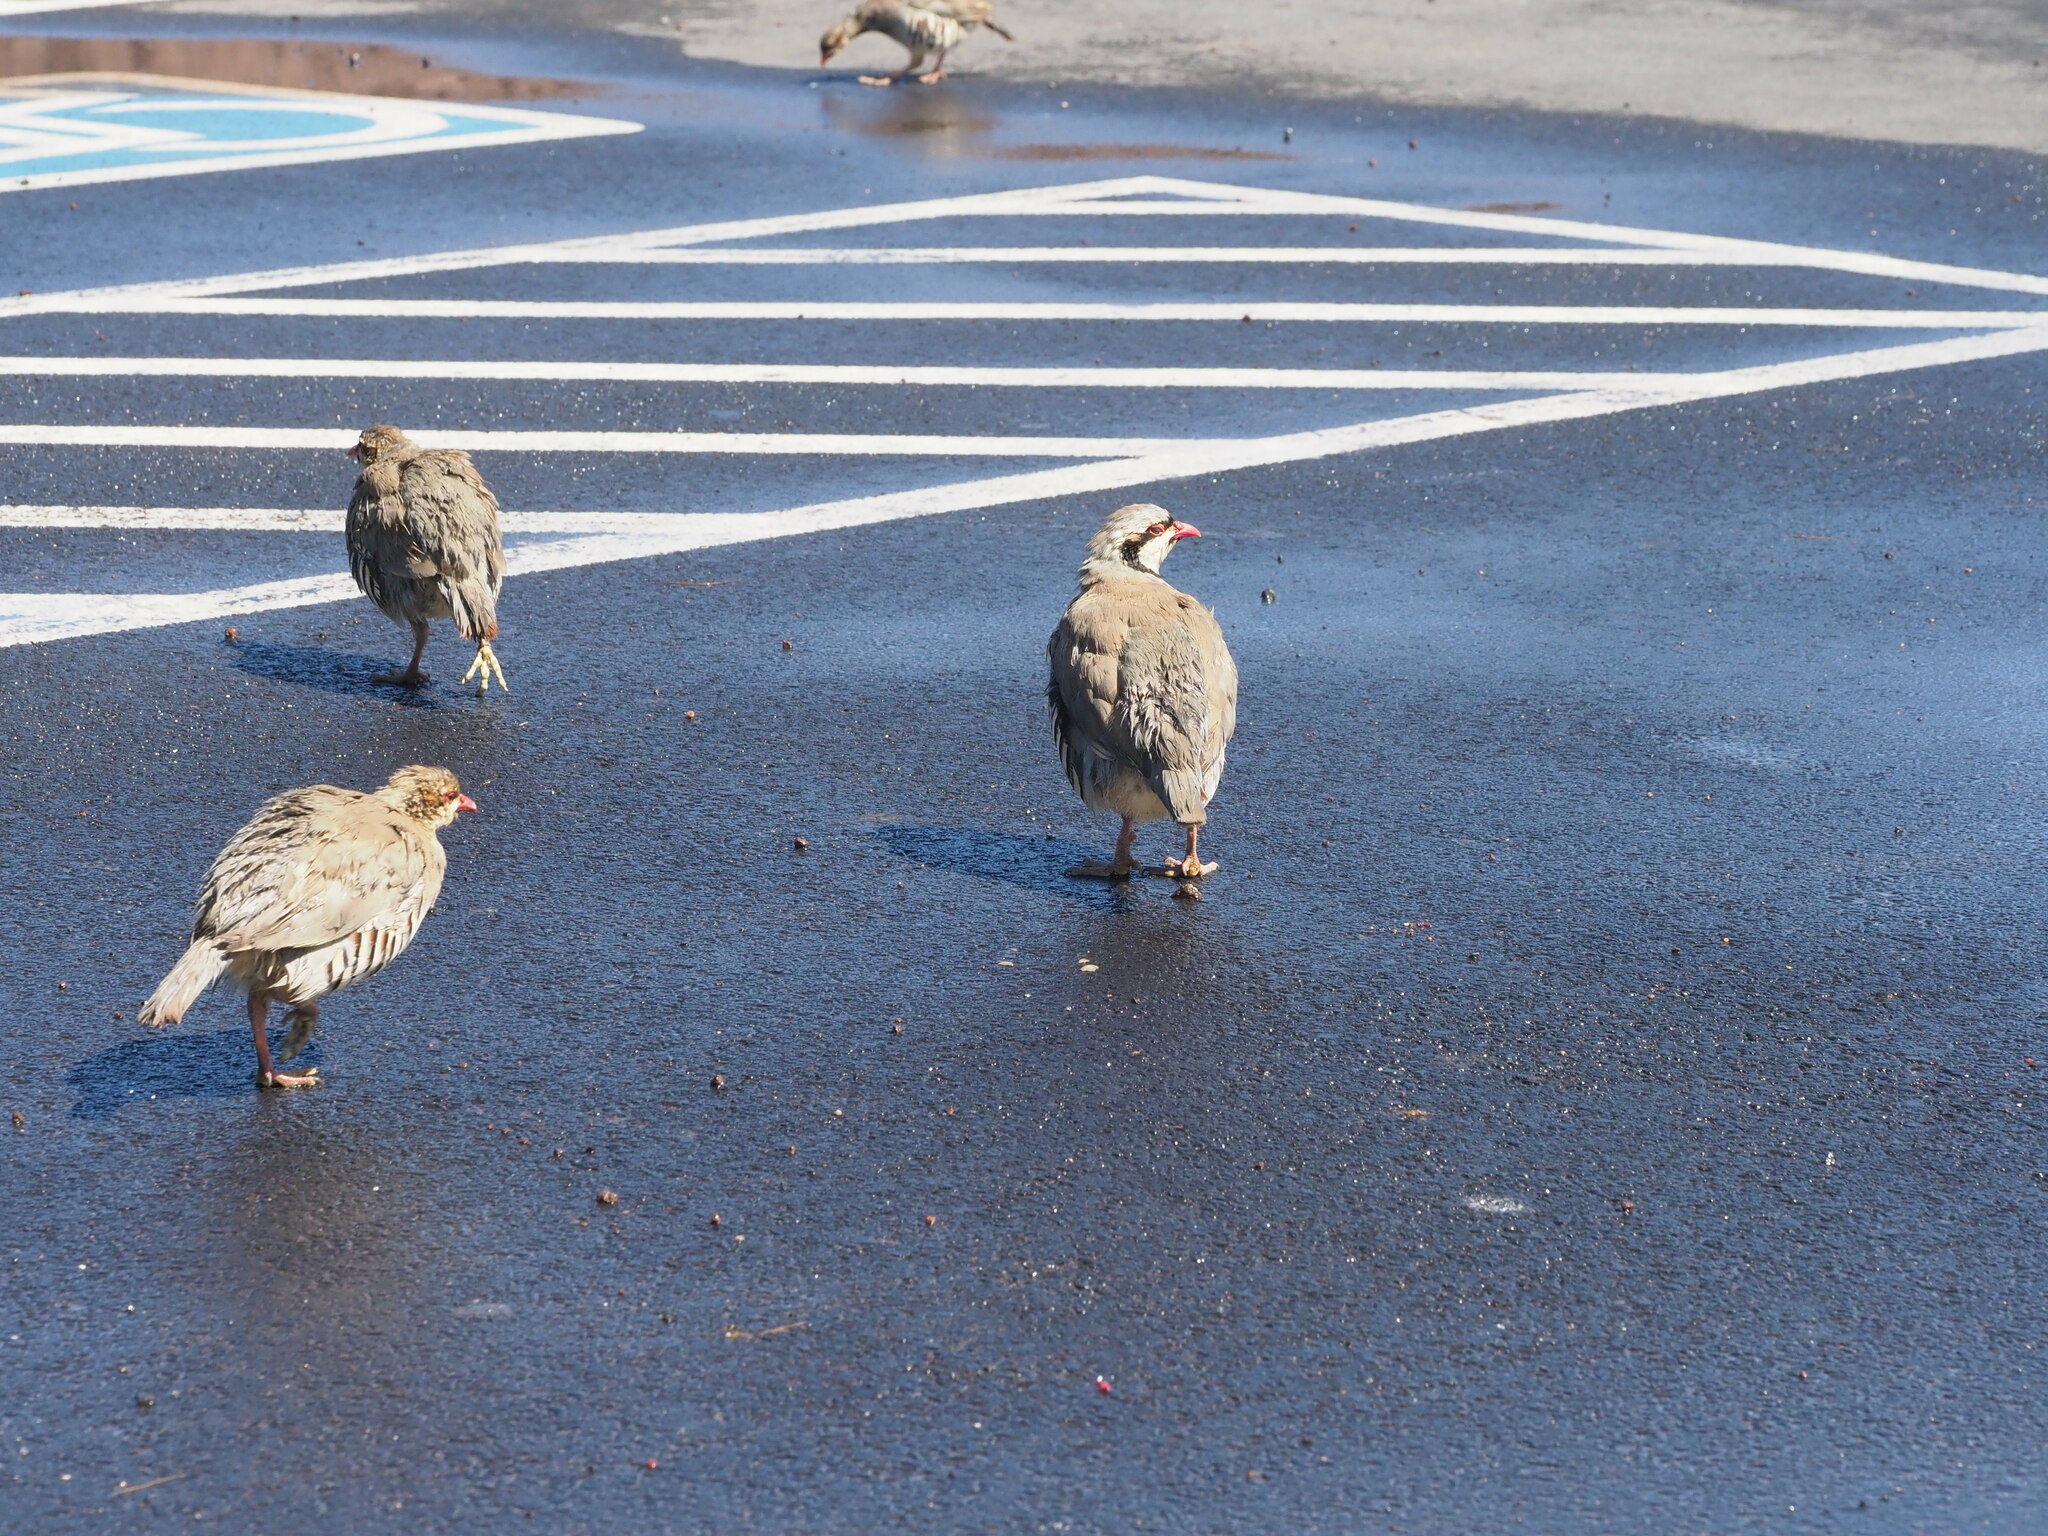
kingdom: Animalia
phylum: Chordata
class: Aves
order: Galliformes
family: Phasianidae
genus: Alectoris
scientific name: Alectoris chukar
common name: Chukar
